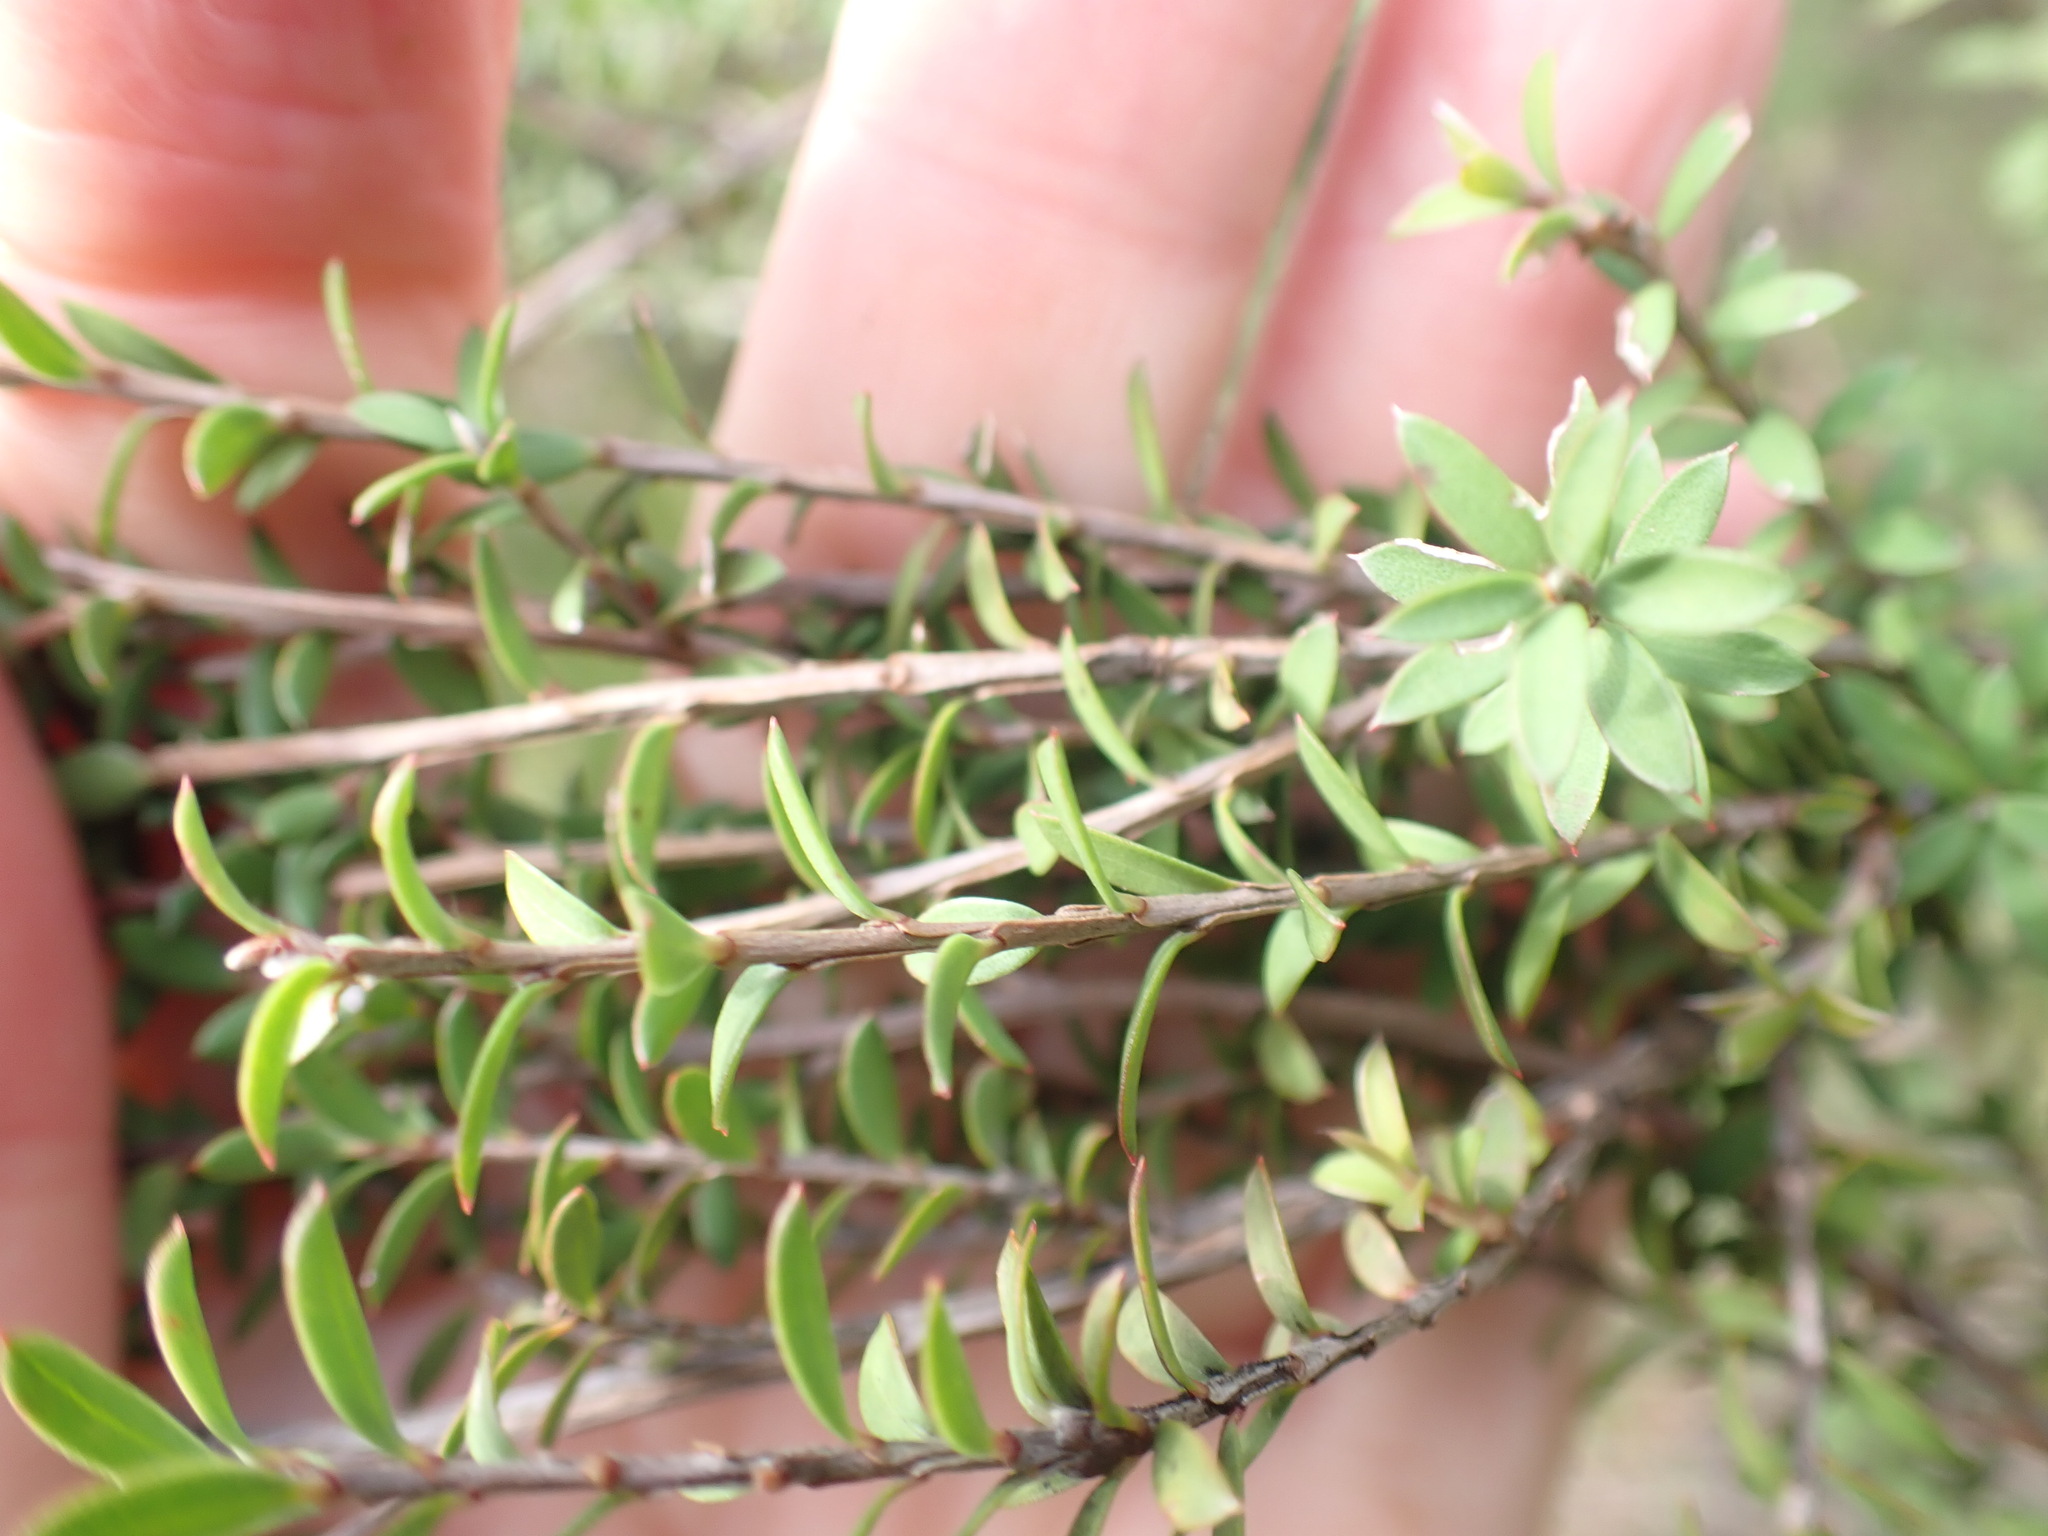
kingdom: Plantae
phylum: Tracheophyta
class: Magnoliopsida
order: Myrtales
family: Myrtaceae
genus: Leptospermum
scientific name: Leptospermum scoparium
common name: Broom tea-tree
